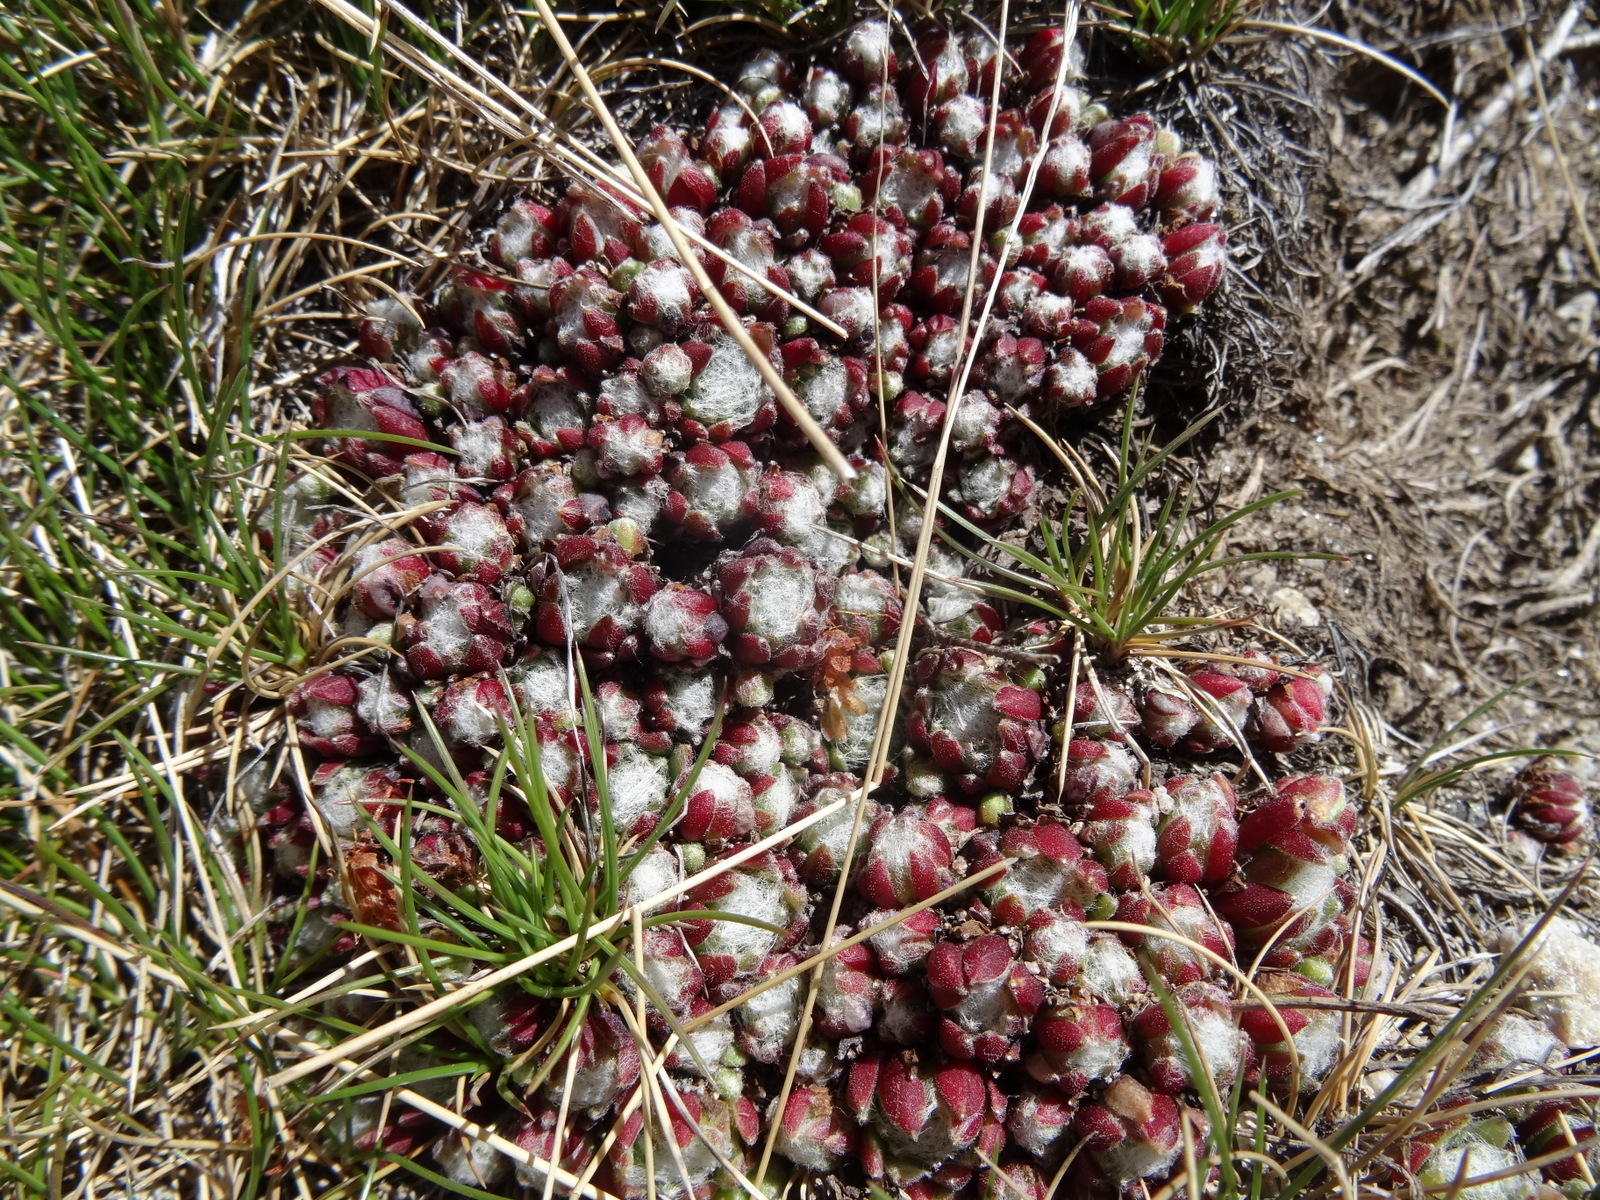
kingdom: Plantae
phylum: Tracheophyta
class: Magnoliopsida
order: Saxifragales
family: Crassulaceae
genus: Sempervivum
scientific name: Sempervivum arachnoideum
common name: Cobweb house-leek
